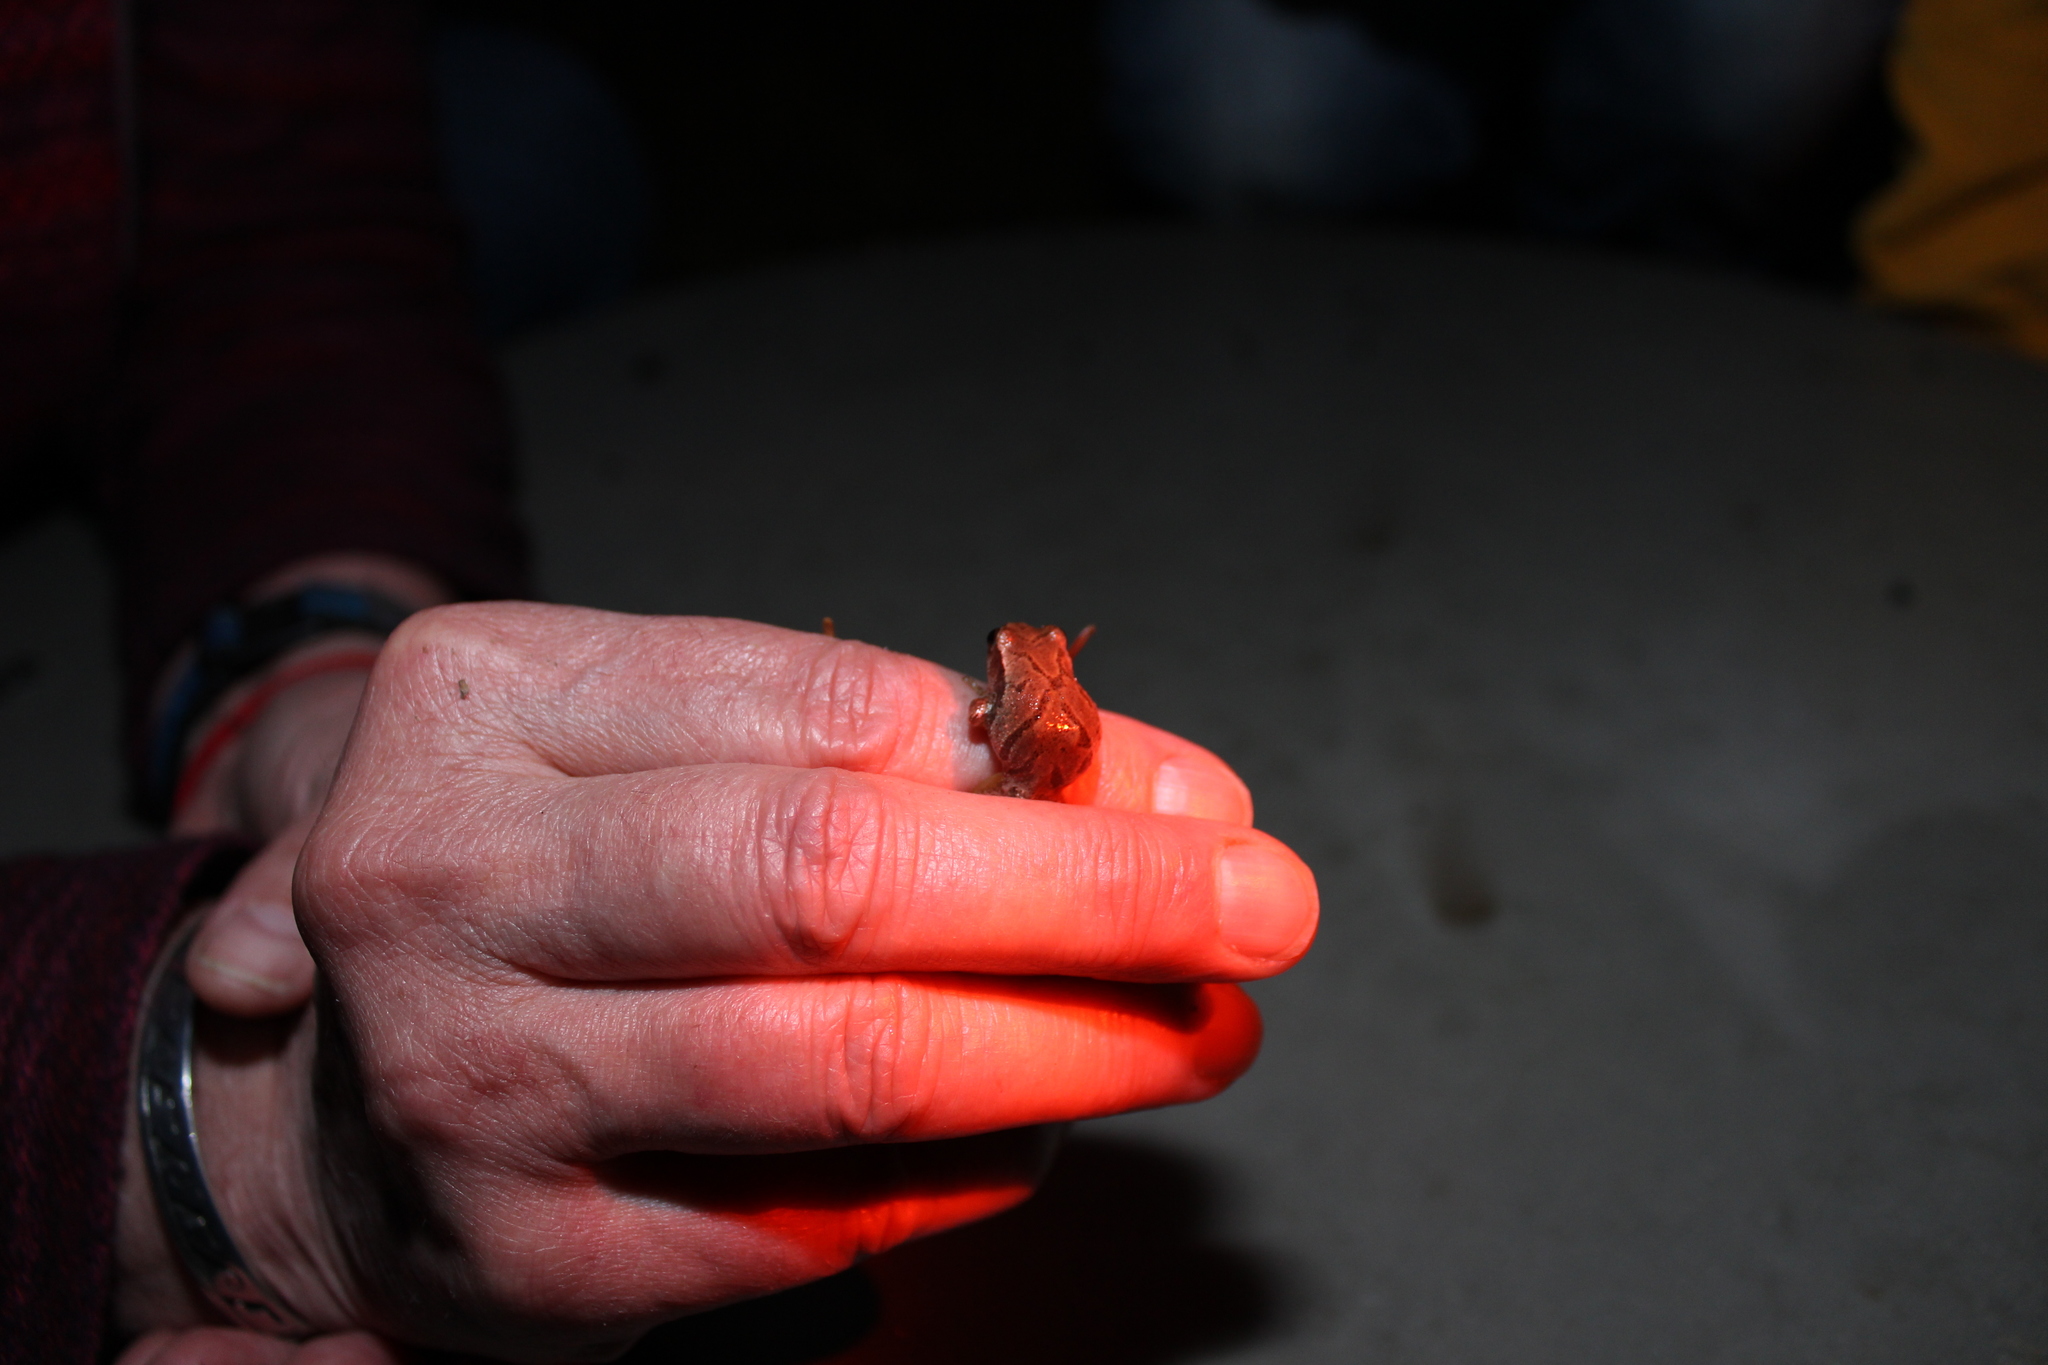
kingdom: Animalia
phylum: Chordata
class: Amphibia
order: Anura
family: Hylidae
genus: Pseudacris
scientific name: Pseudacris crucifer
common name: Spring peeper
